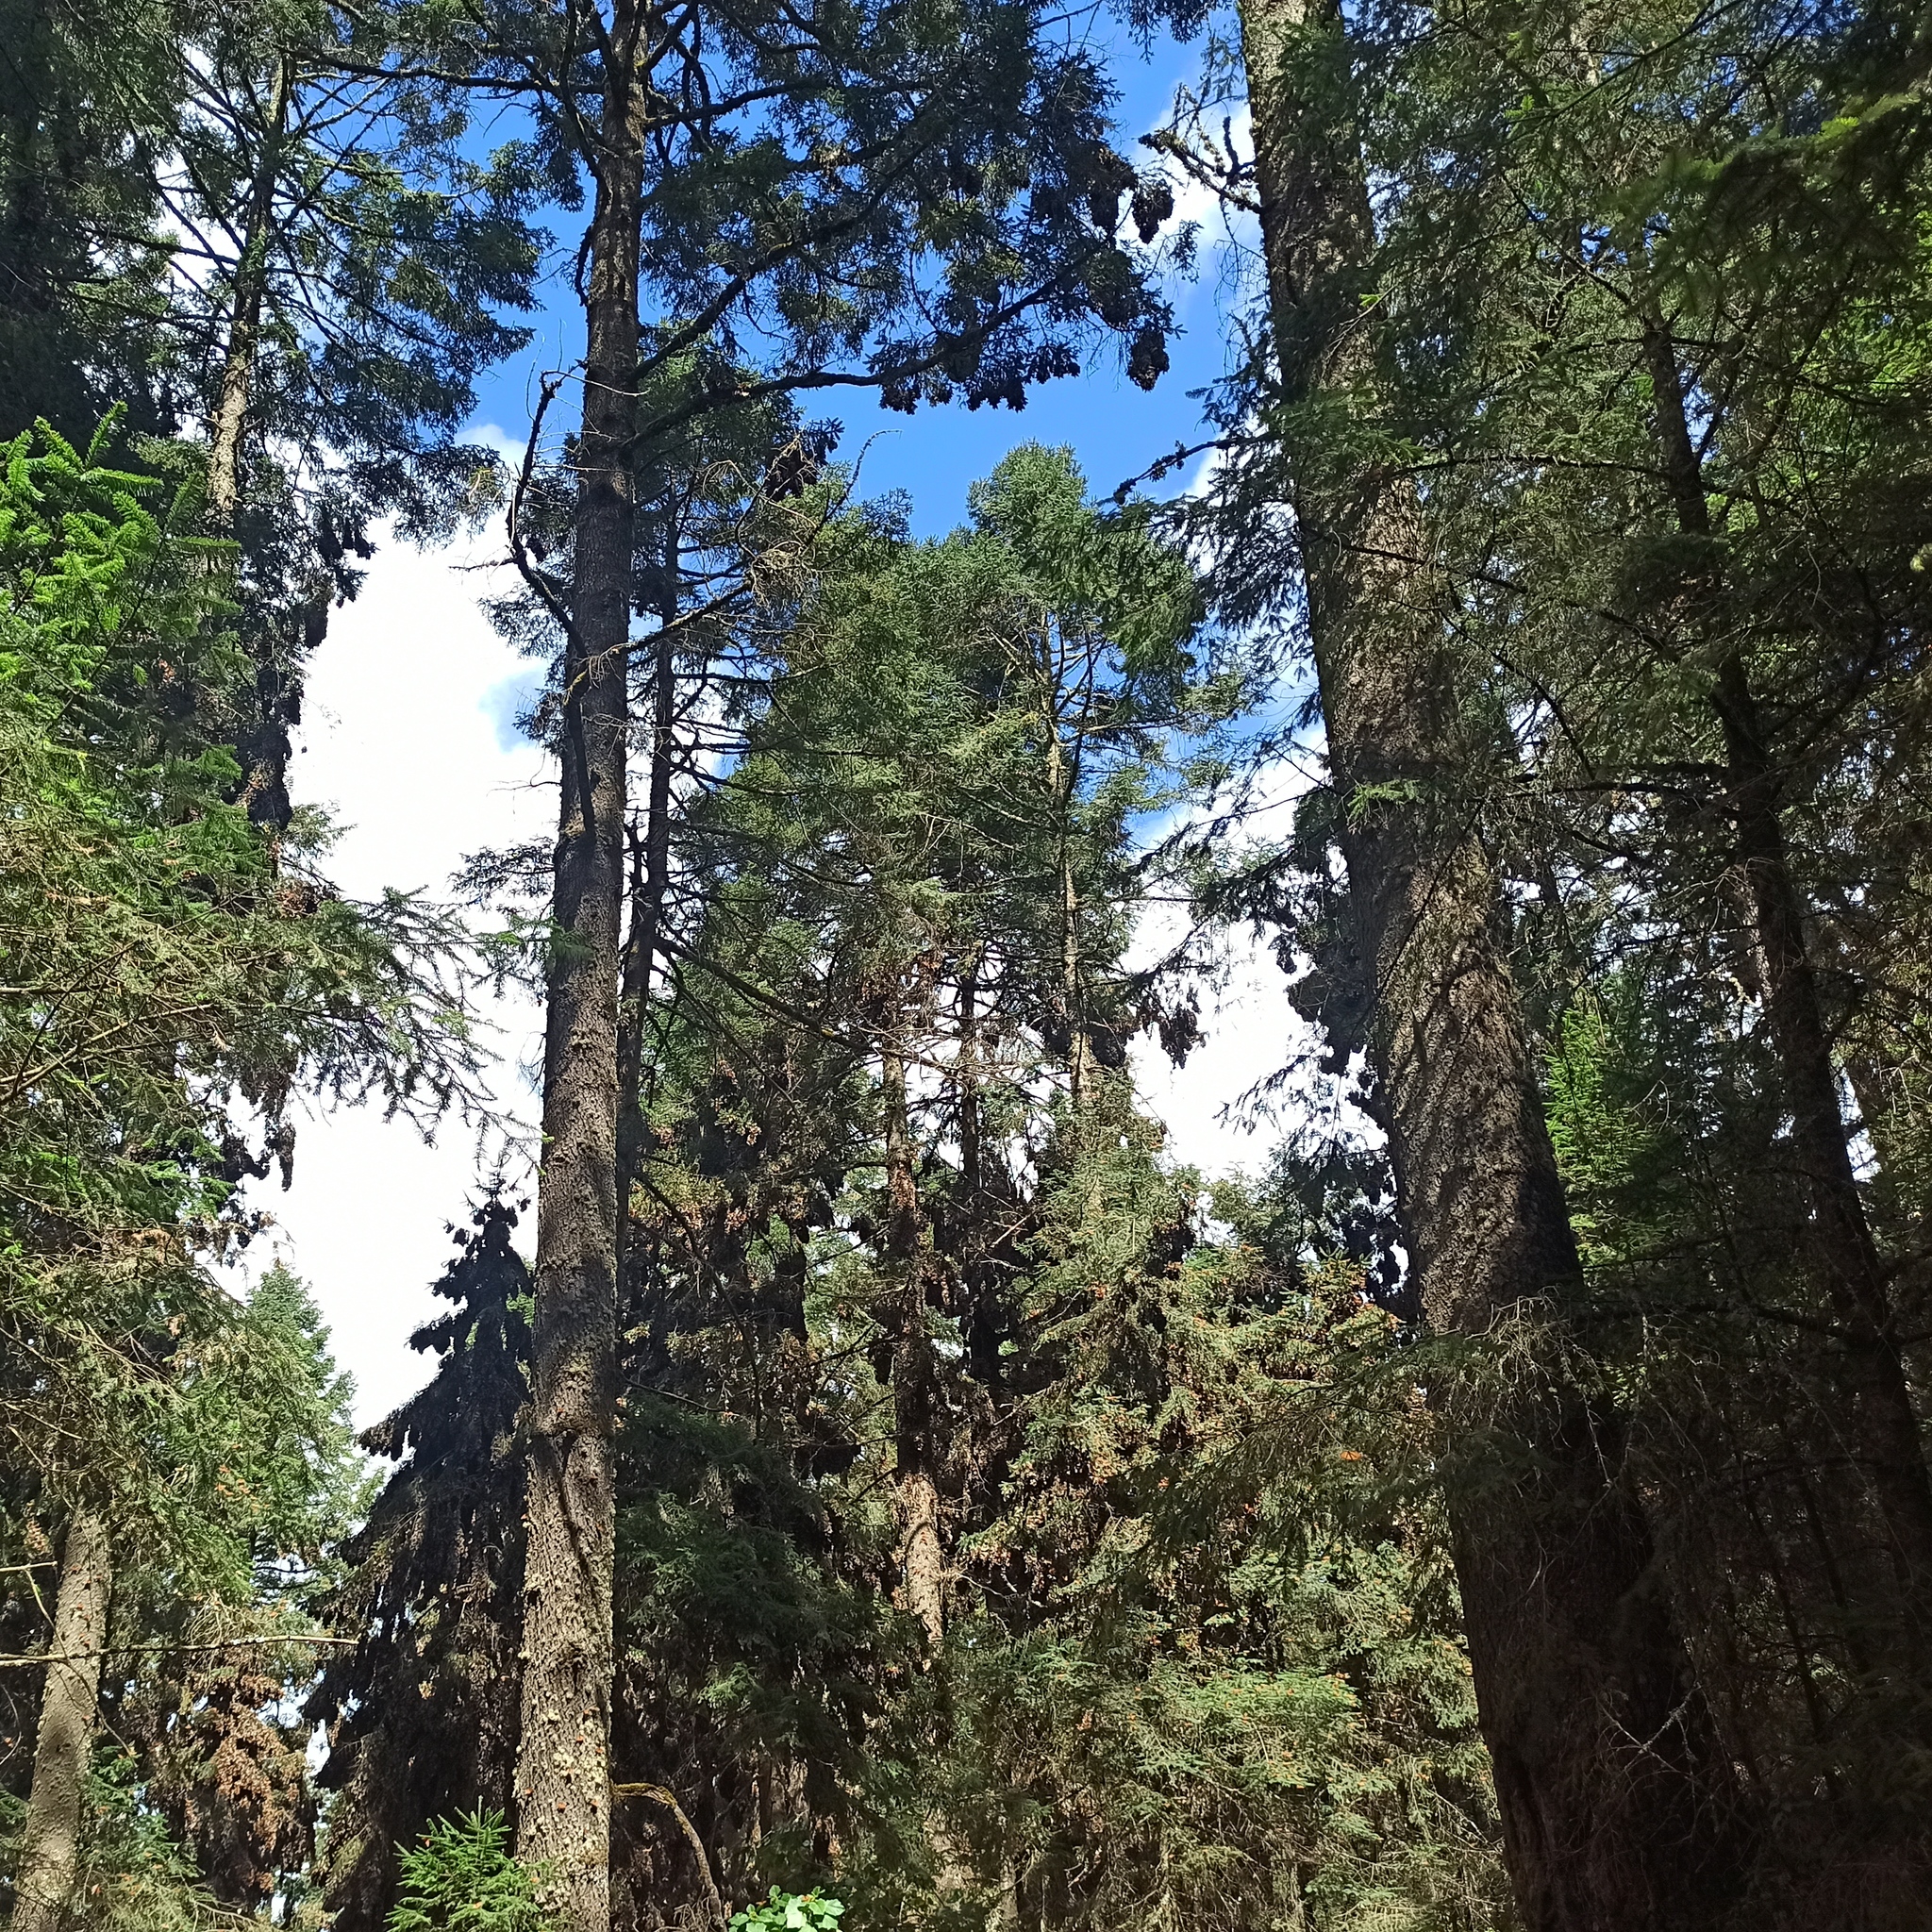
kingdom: Plantae
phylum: Tracheophyta
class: Pinopsida
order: Pinales
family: Pinaceae
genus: Abies
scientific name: Abies religiosa
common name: Sacred fir
